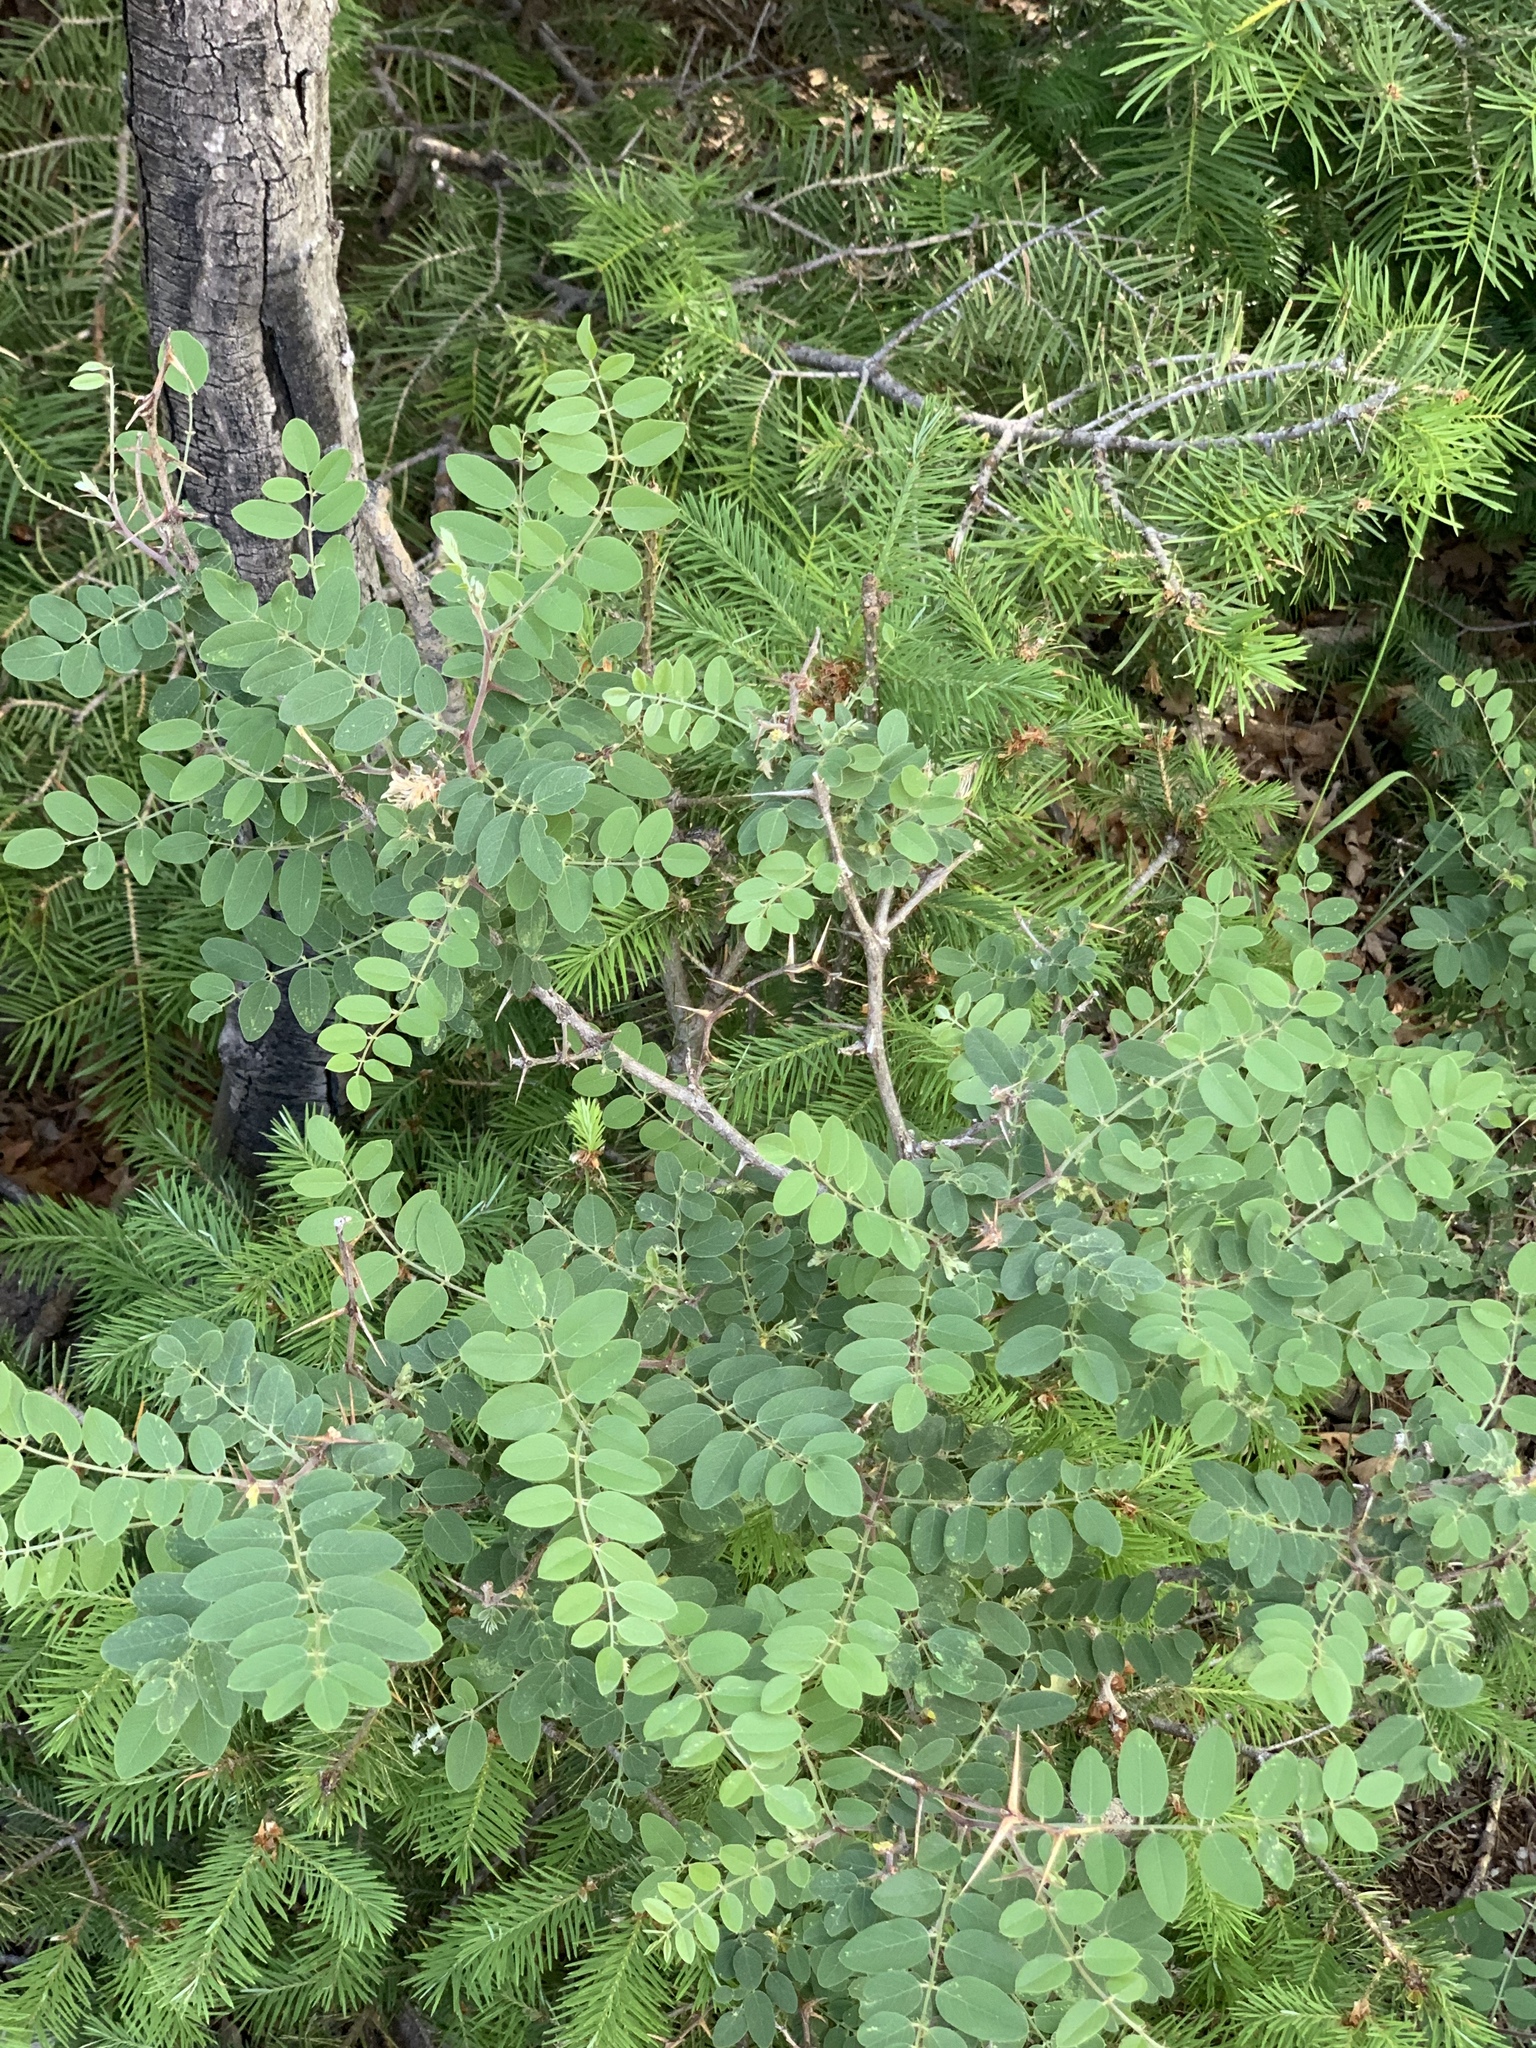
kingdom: Plantae
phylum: Tracheophyta
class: Magnoliopsida
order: Fabales
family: Fabaceae
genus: Robinia
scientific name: Robinia neomexicana
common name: New mexico locust
